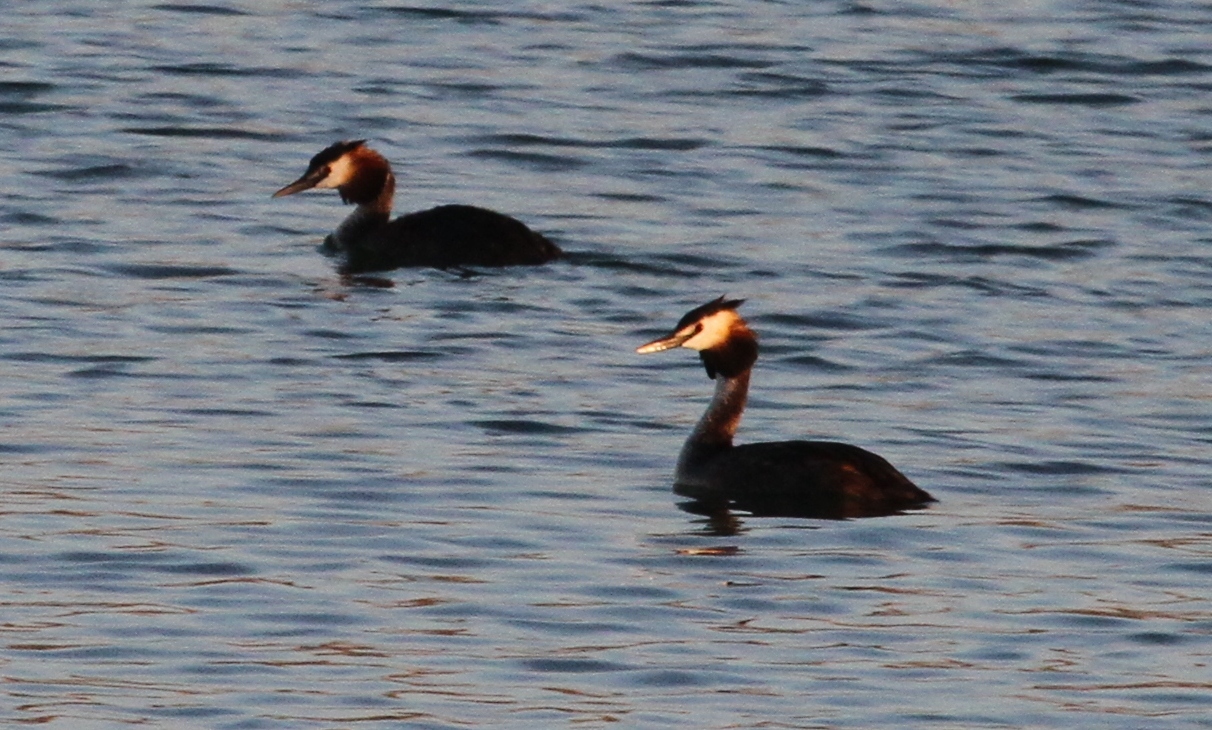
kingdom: Animalia
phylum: Chordata
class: Aves
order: Podicipediformes
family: Podicipedidae
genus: Podiceps
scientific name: Podiceps cristatus
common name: Great crested grebe
